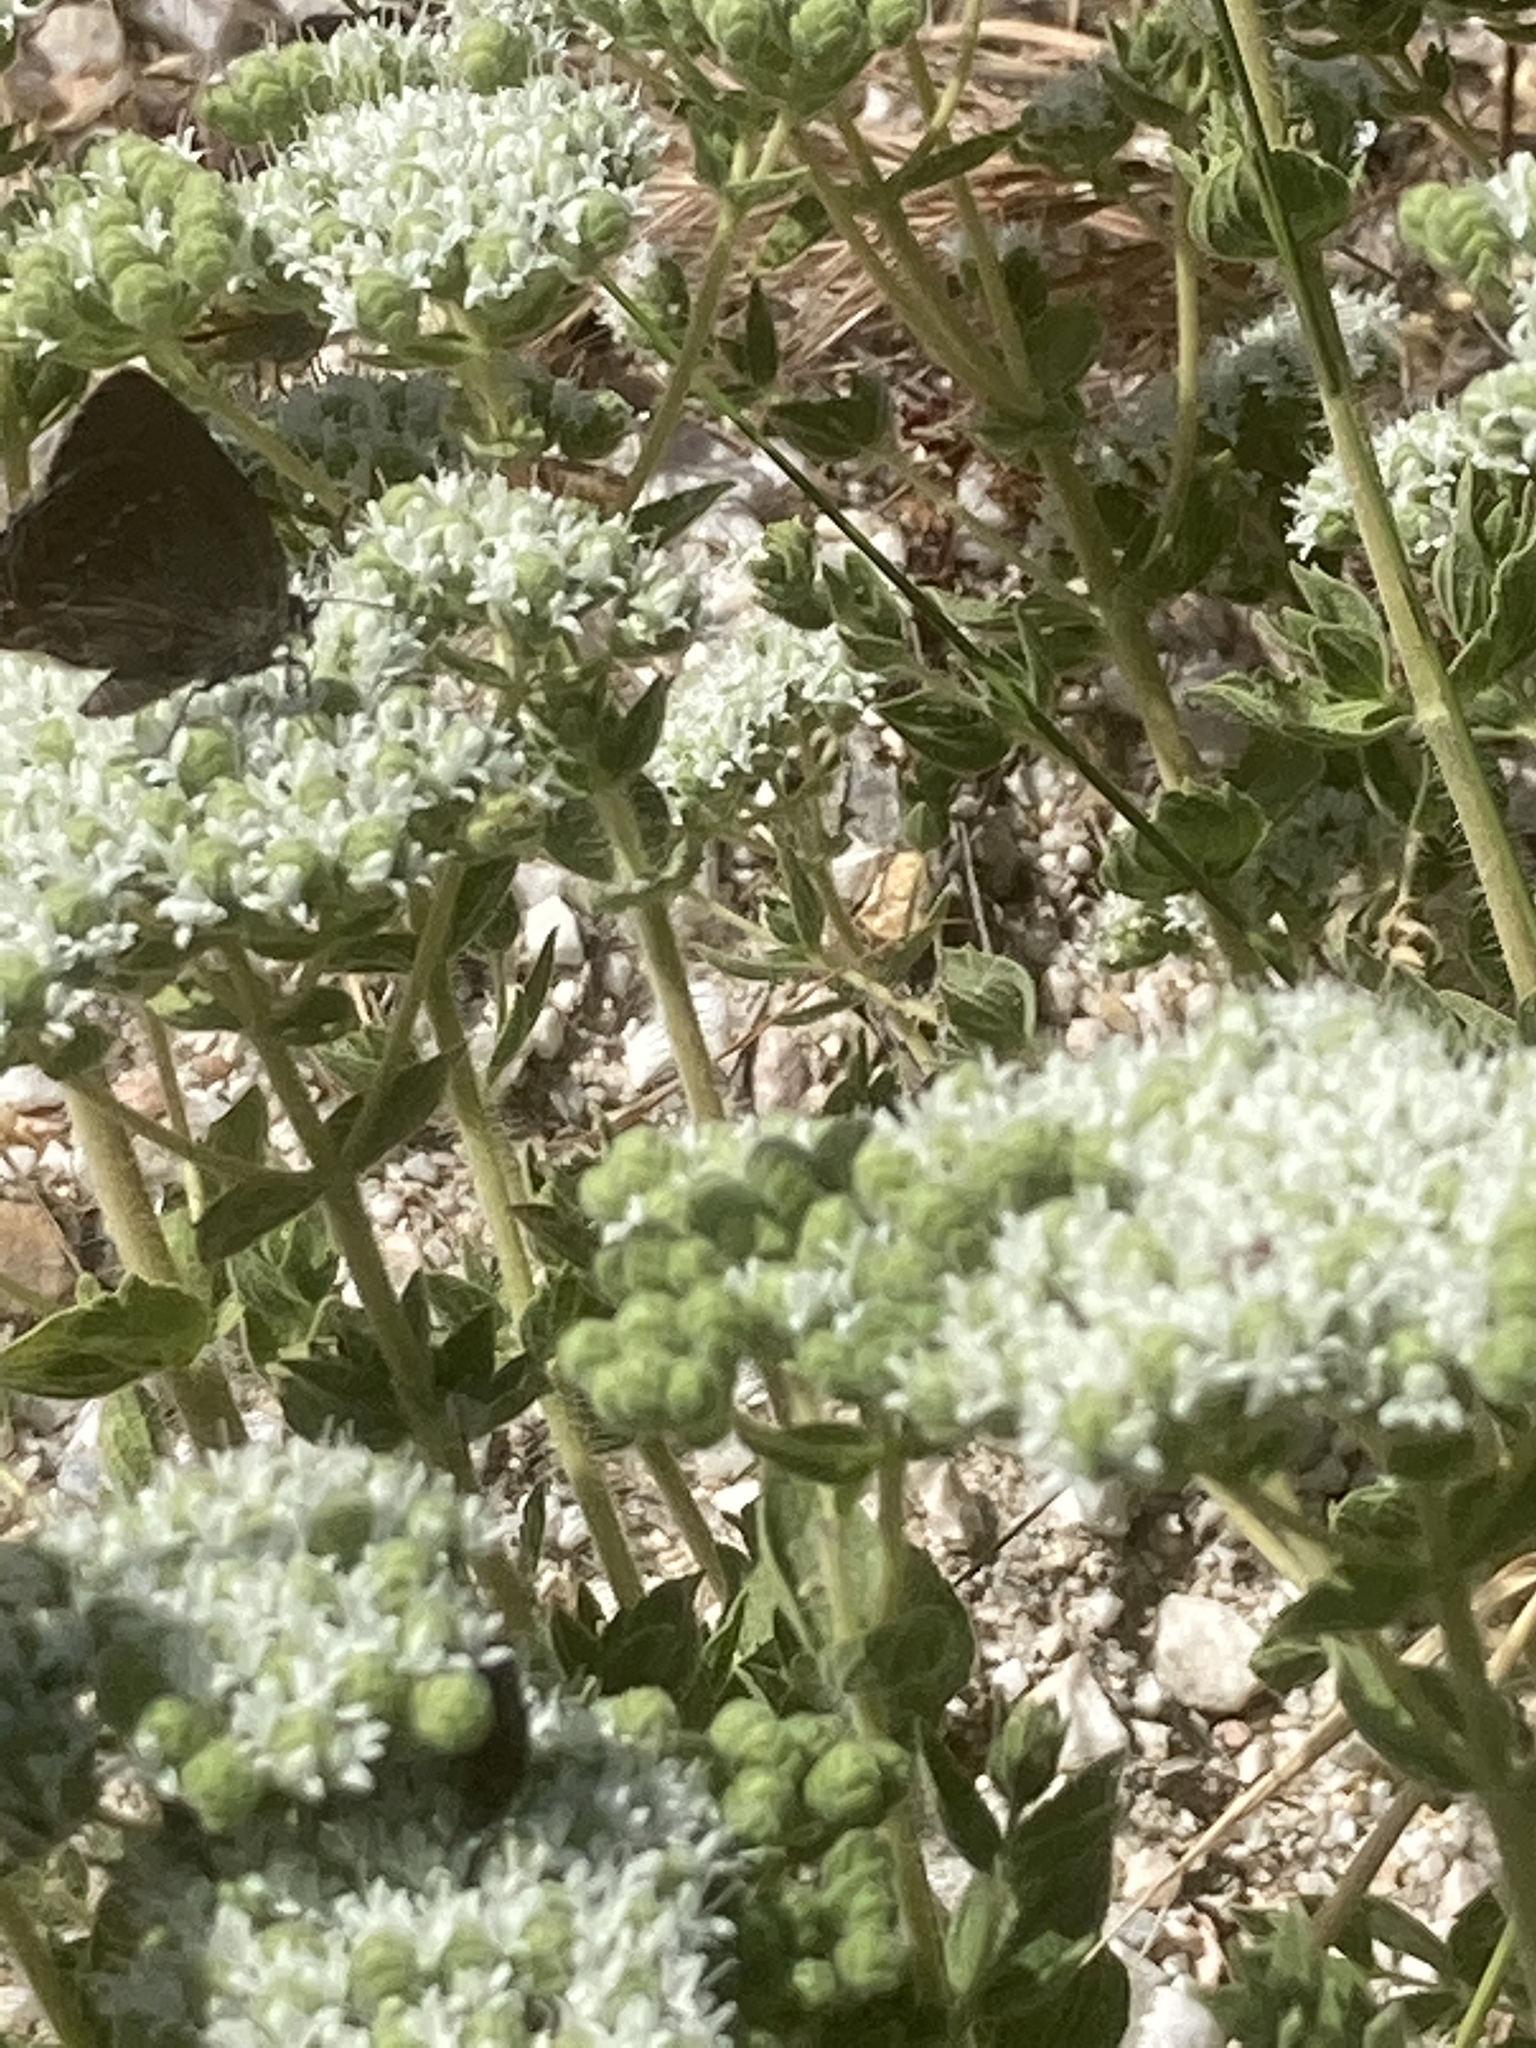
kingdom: Animalia
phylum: Arthropoda
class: Insecta
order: Lepidoptera
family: Lycaenidae
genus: Nordmannia
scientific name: Nordmannia ilicis
